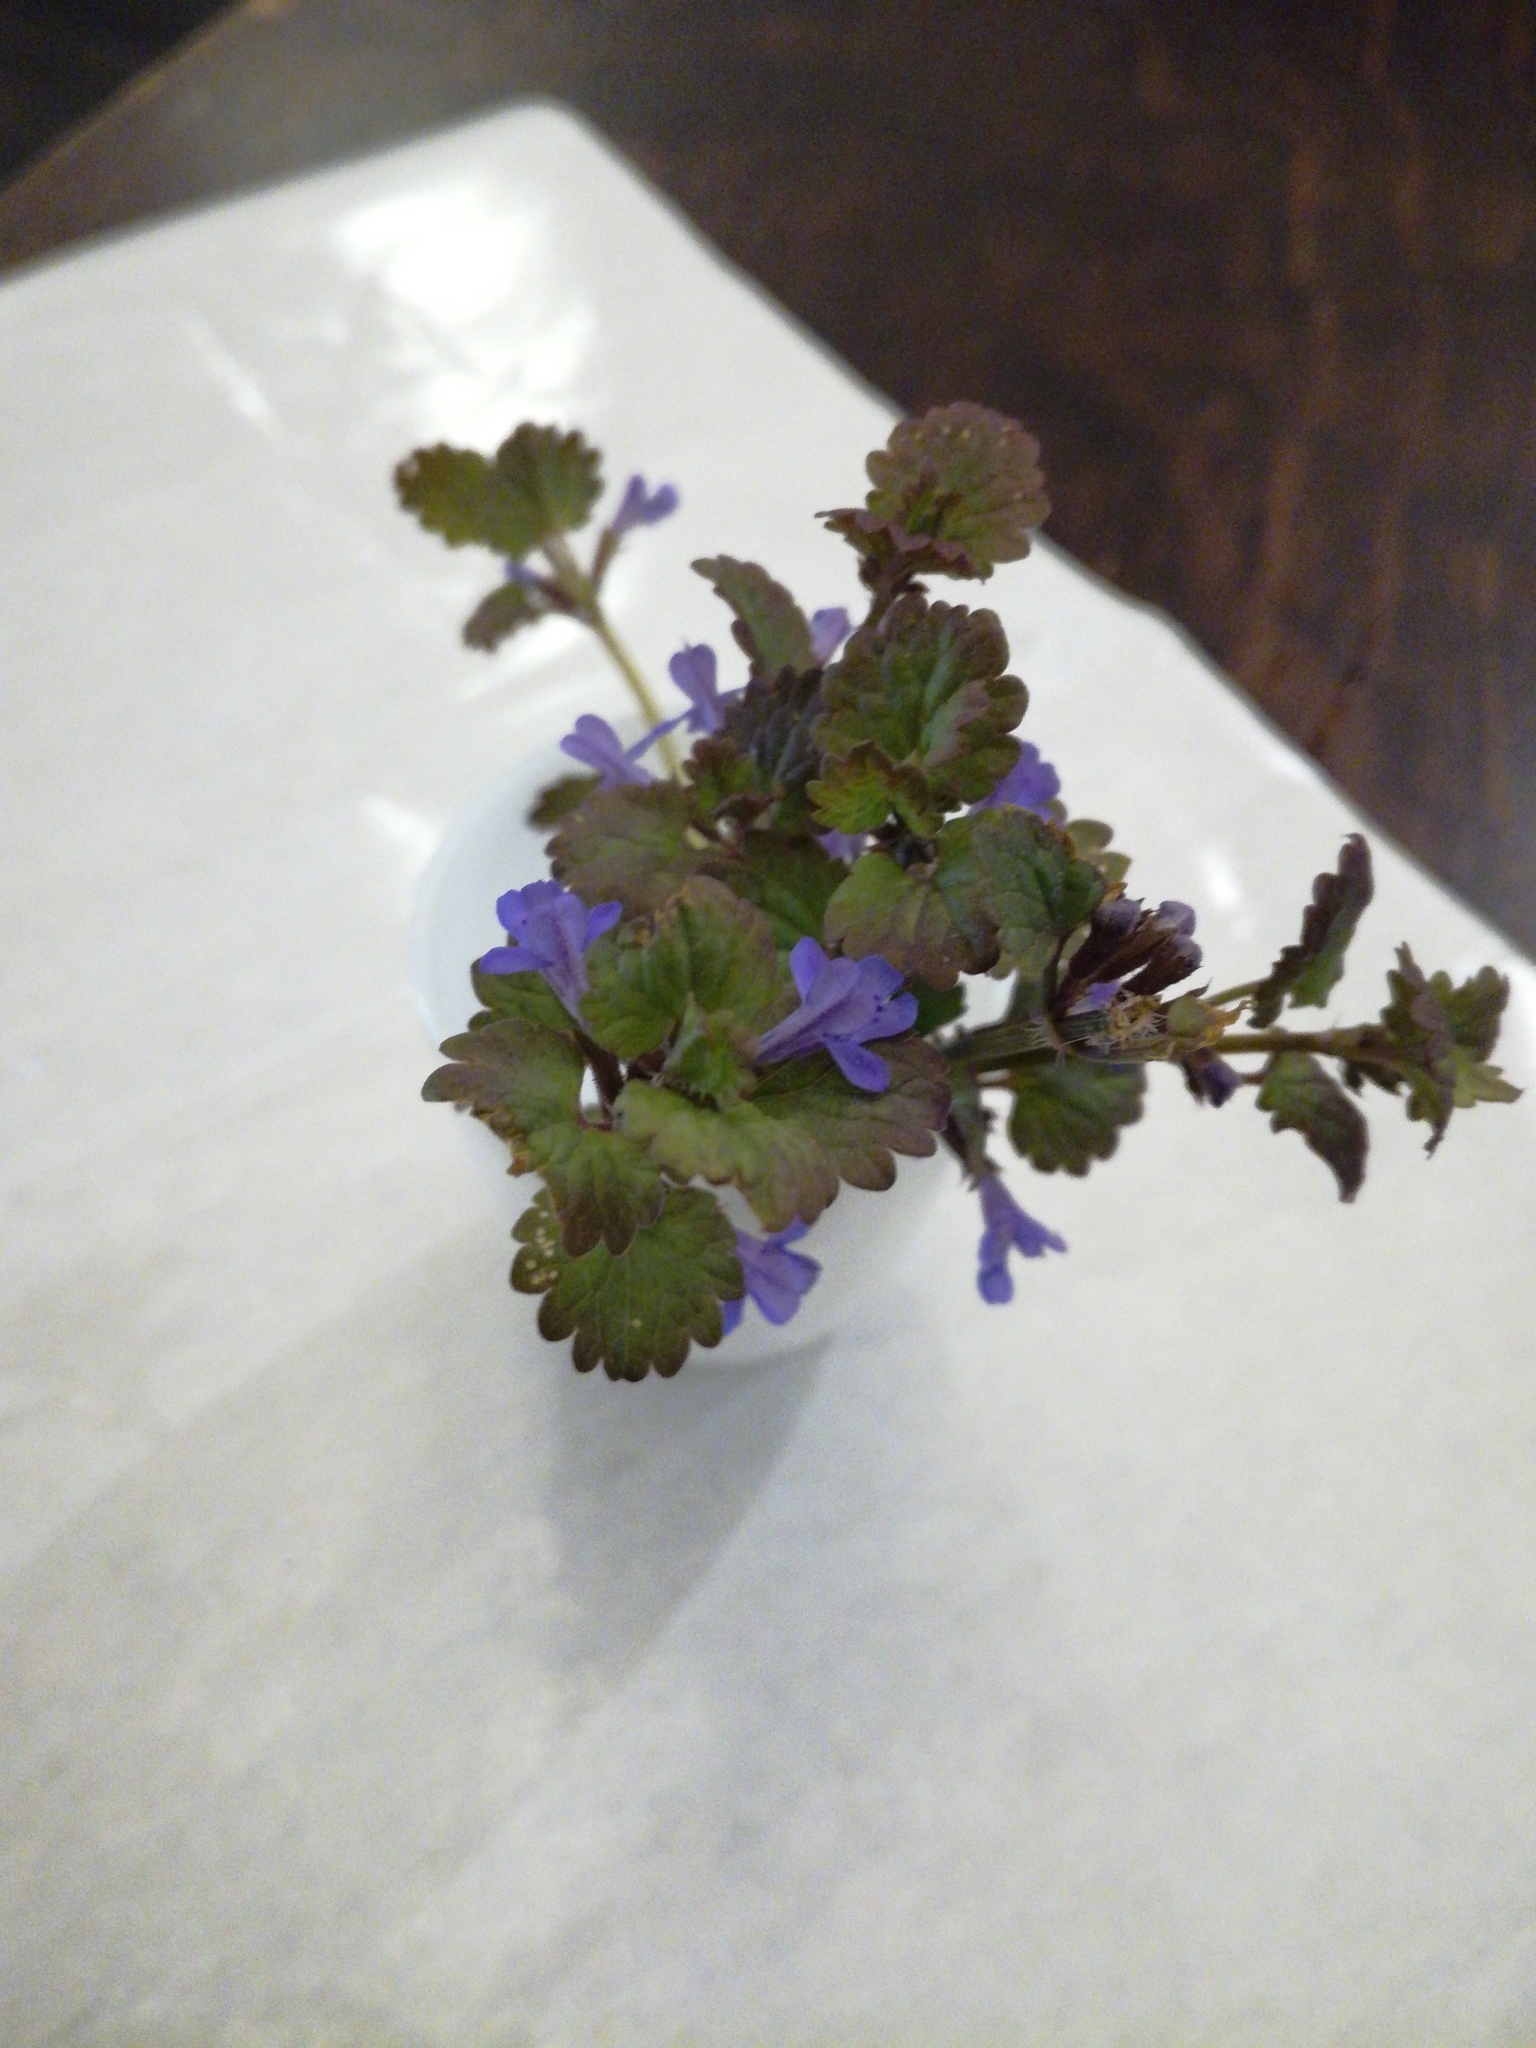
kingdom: Plantae
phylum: Tracheophyta
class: Magnoliopsida
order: Lamiales
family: Lamiaceae
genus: Glechoma
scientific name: Glechoma hederacea
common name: Ground ivy
